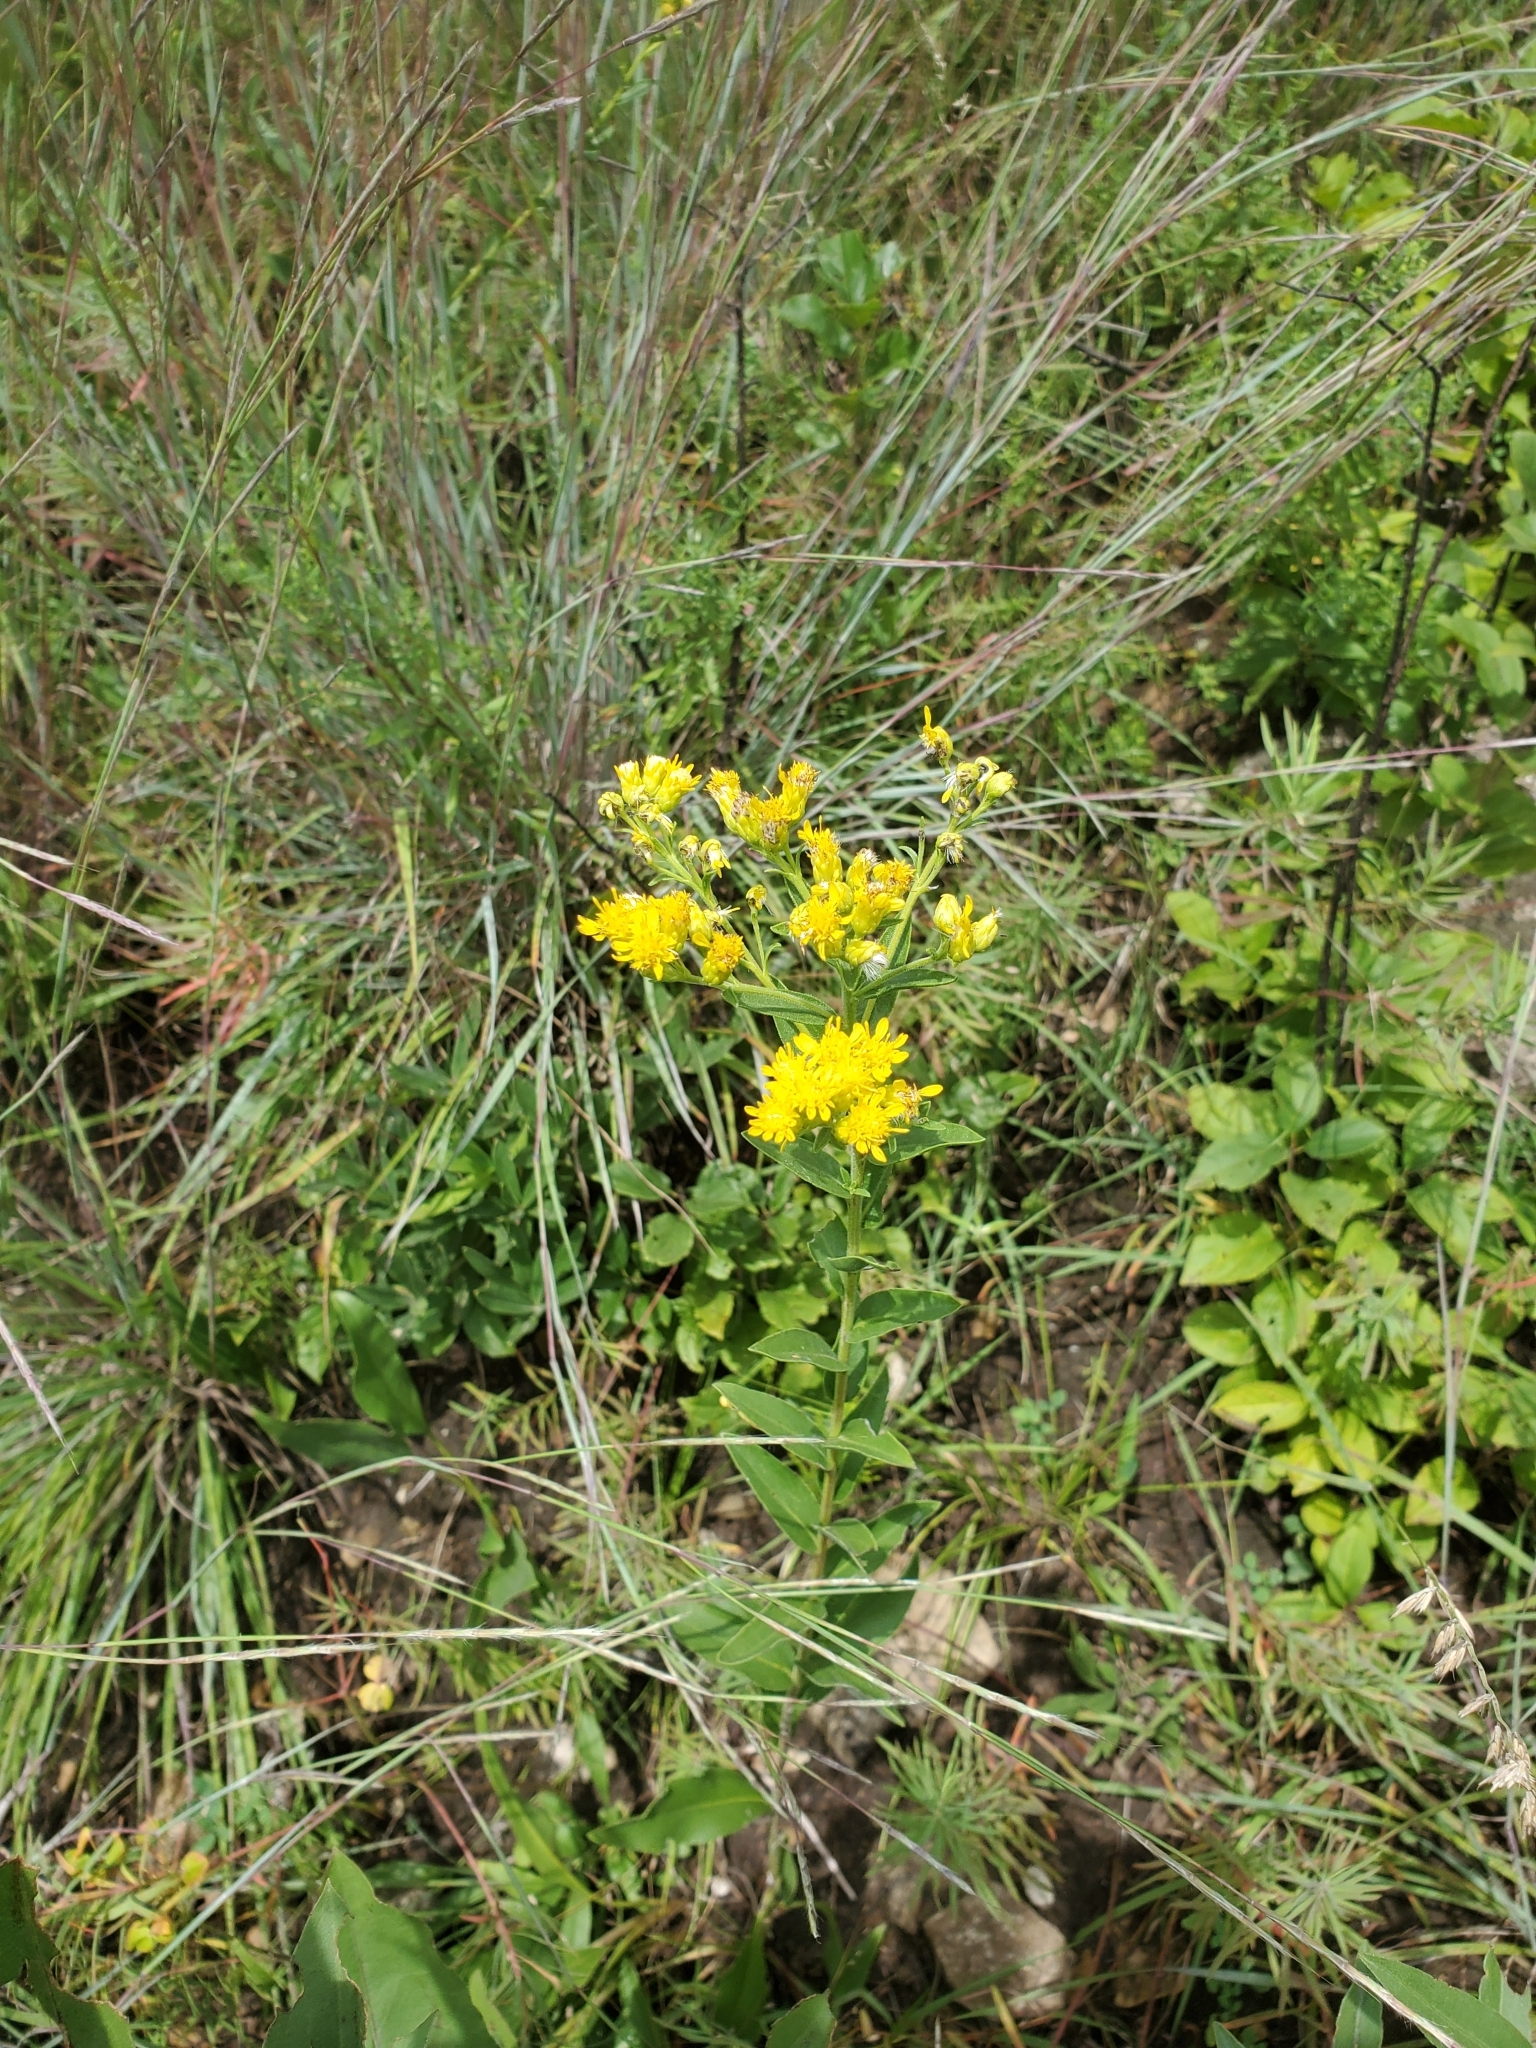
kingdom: Plantae
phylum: Tracheophyta
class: Magnoliopsida
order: Asterales
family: Asteraceae
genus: Solidago
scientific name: Solidago rigida
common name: Rigid goldenrod
